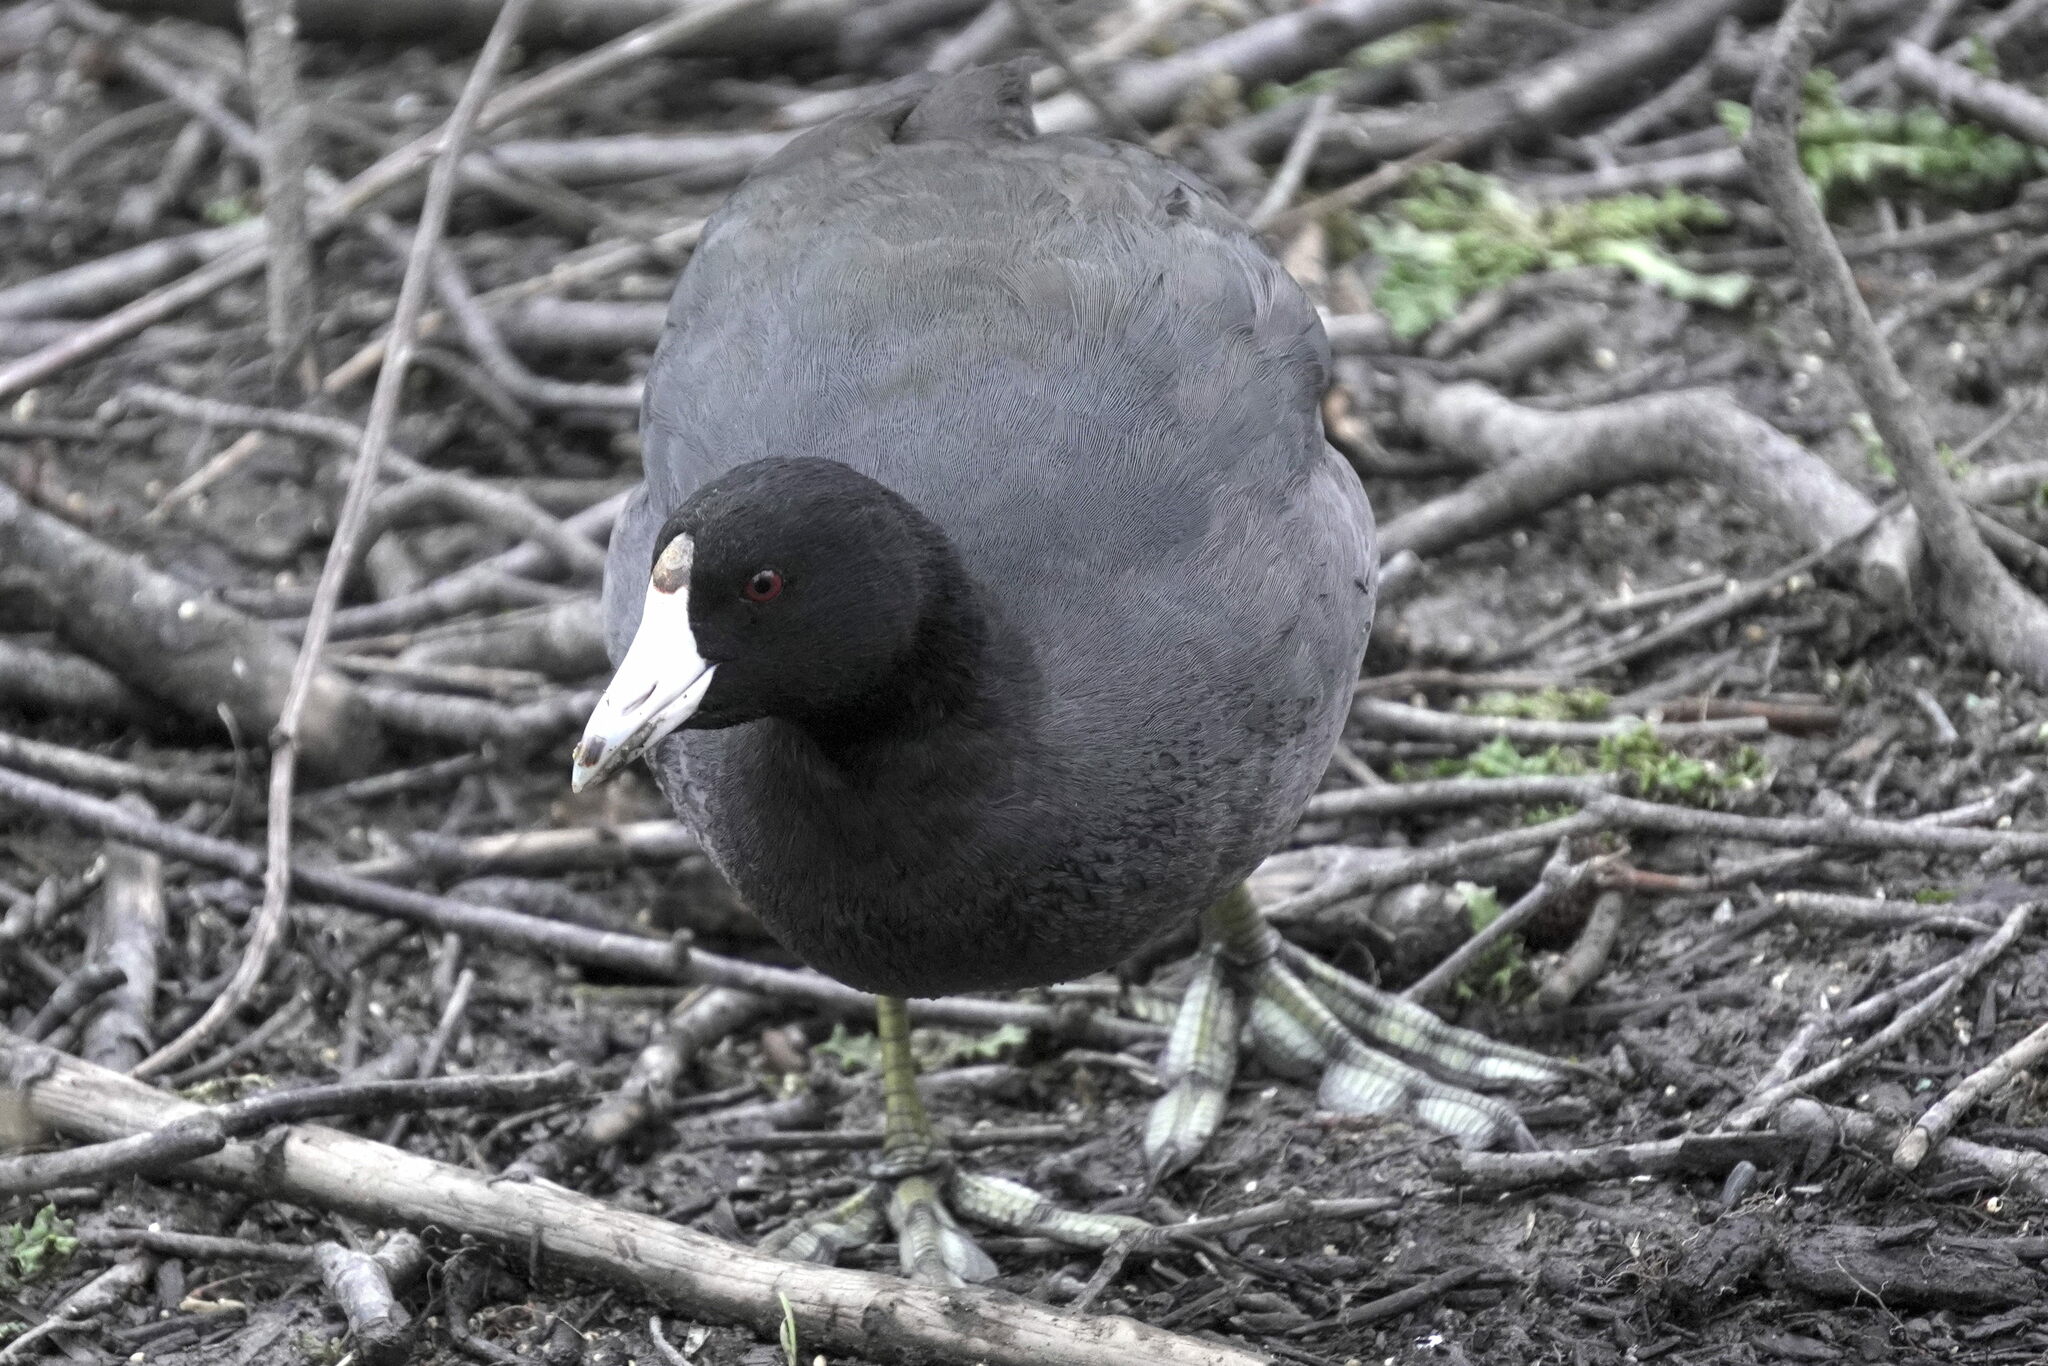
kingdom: Animalia
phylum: Chordata
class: Aves
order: Gruiformes
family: Rallidae
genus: Fulica
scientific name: Fulica americana
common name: American coot
